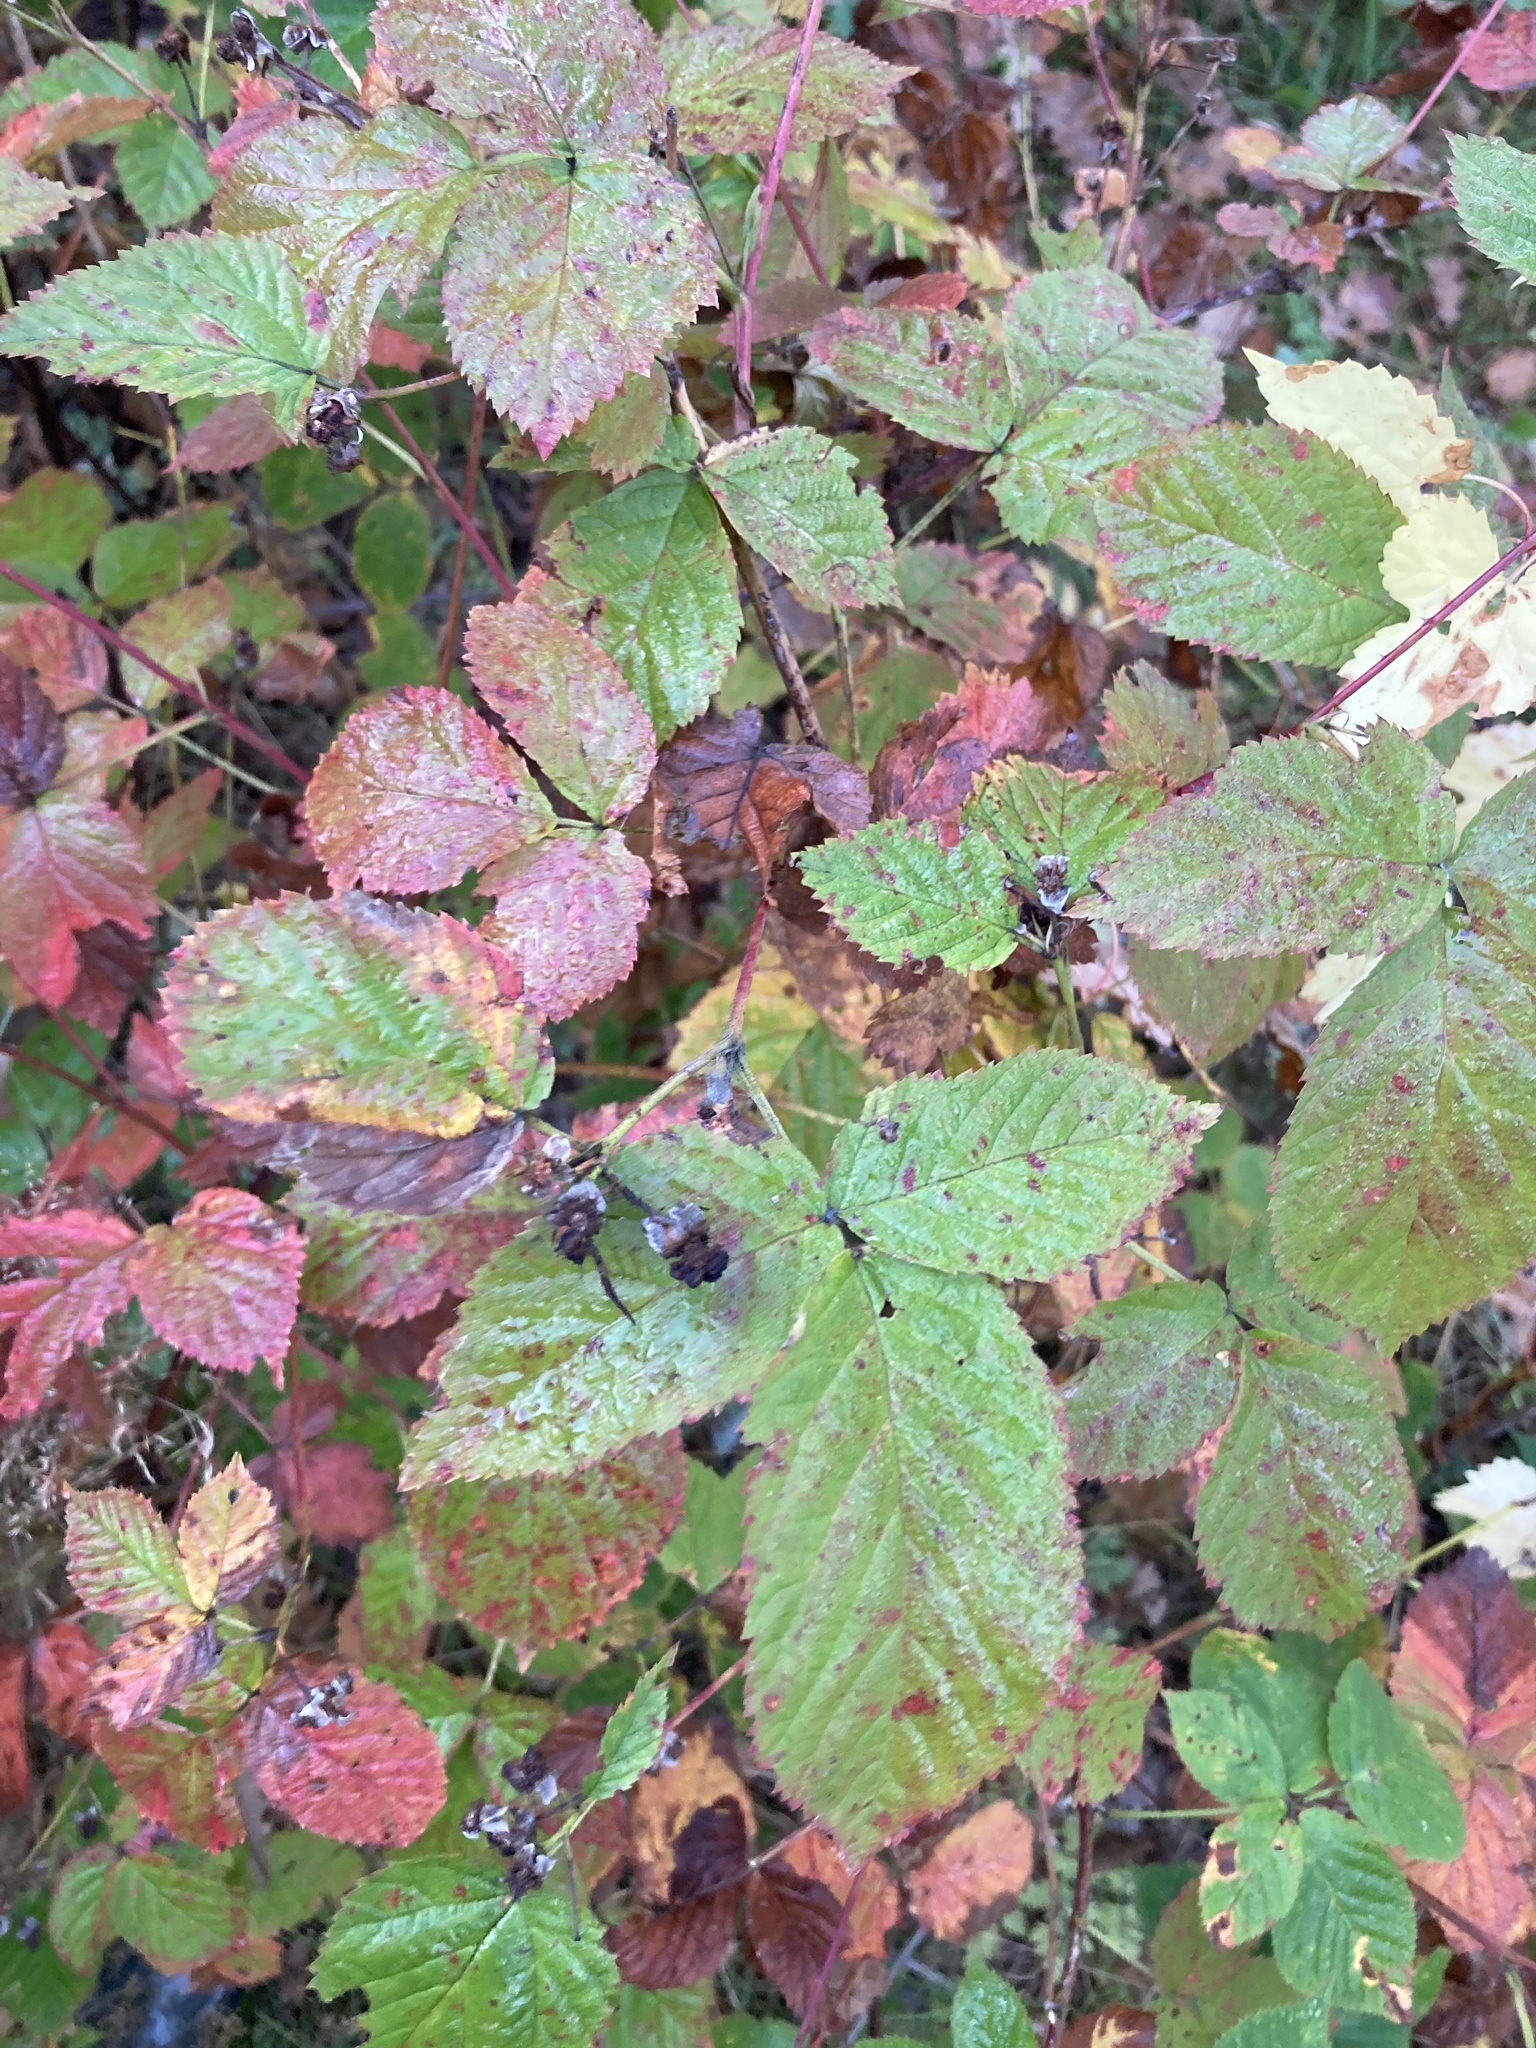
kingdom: Plantae
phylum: Tracheophyta
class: Magnoliopsida
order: Rosales
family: Rosaceae
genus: Rubus
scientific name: Rubus caesius
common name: Dewberry
